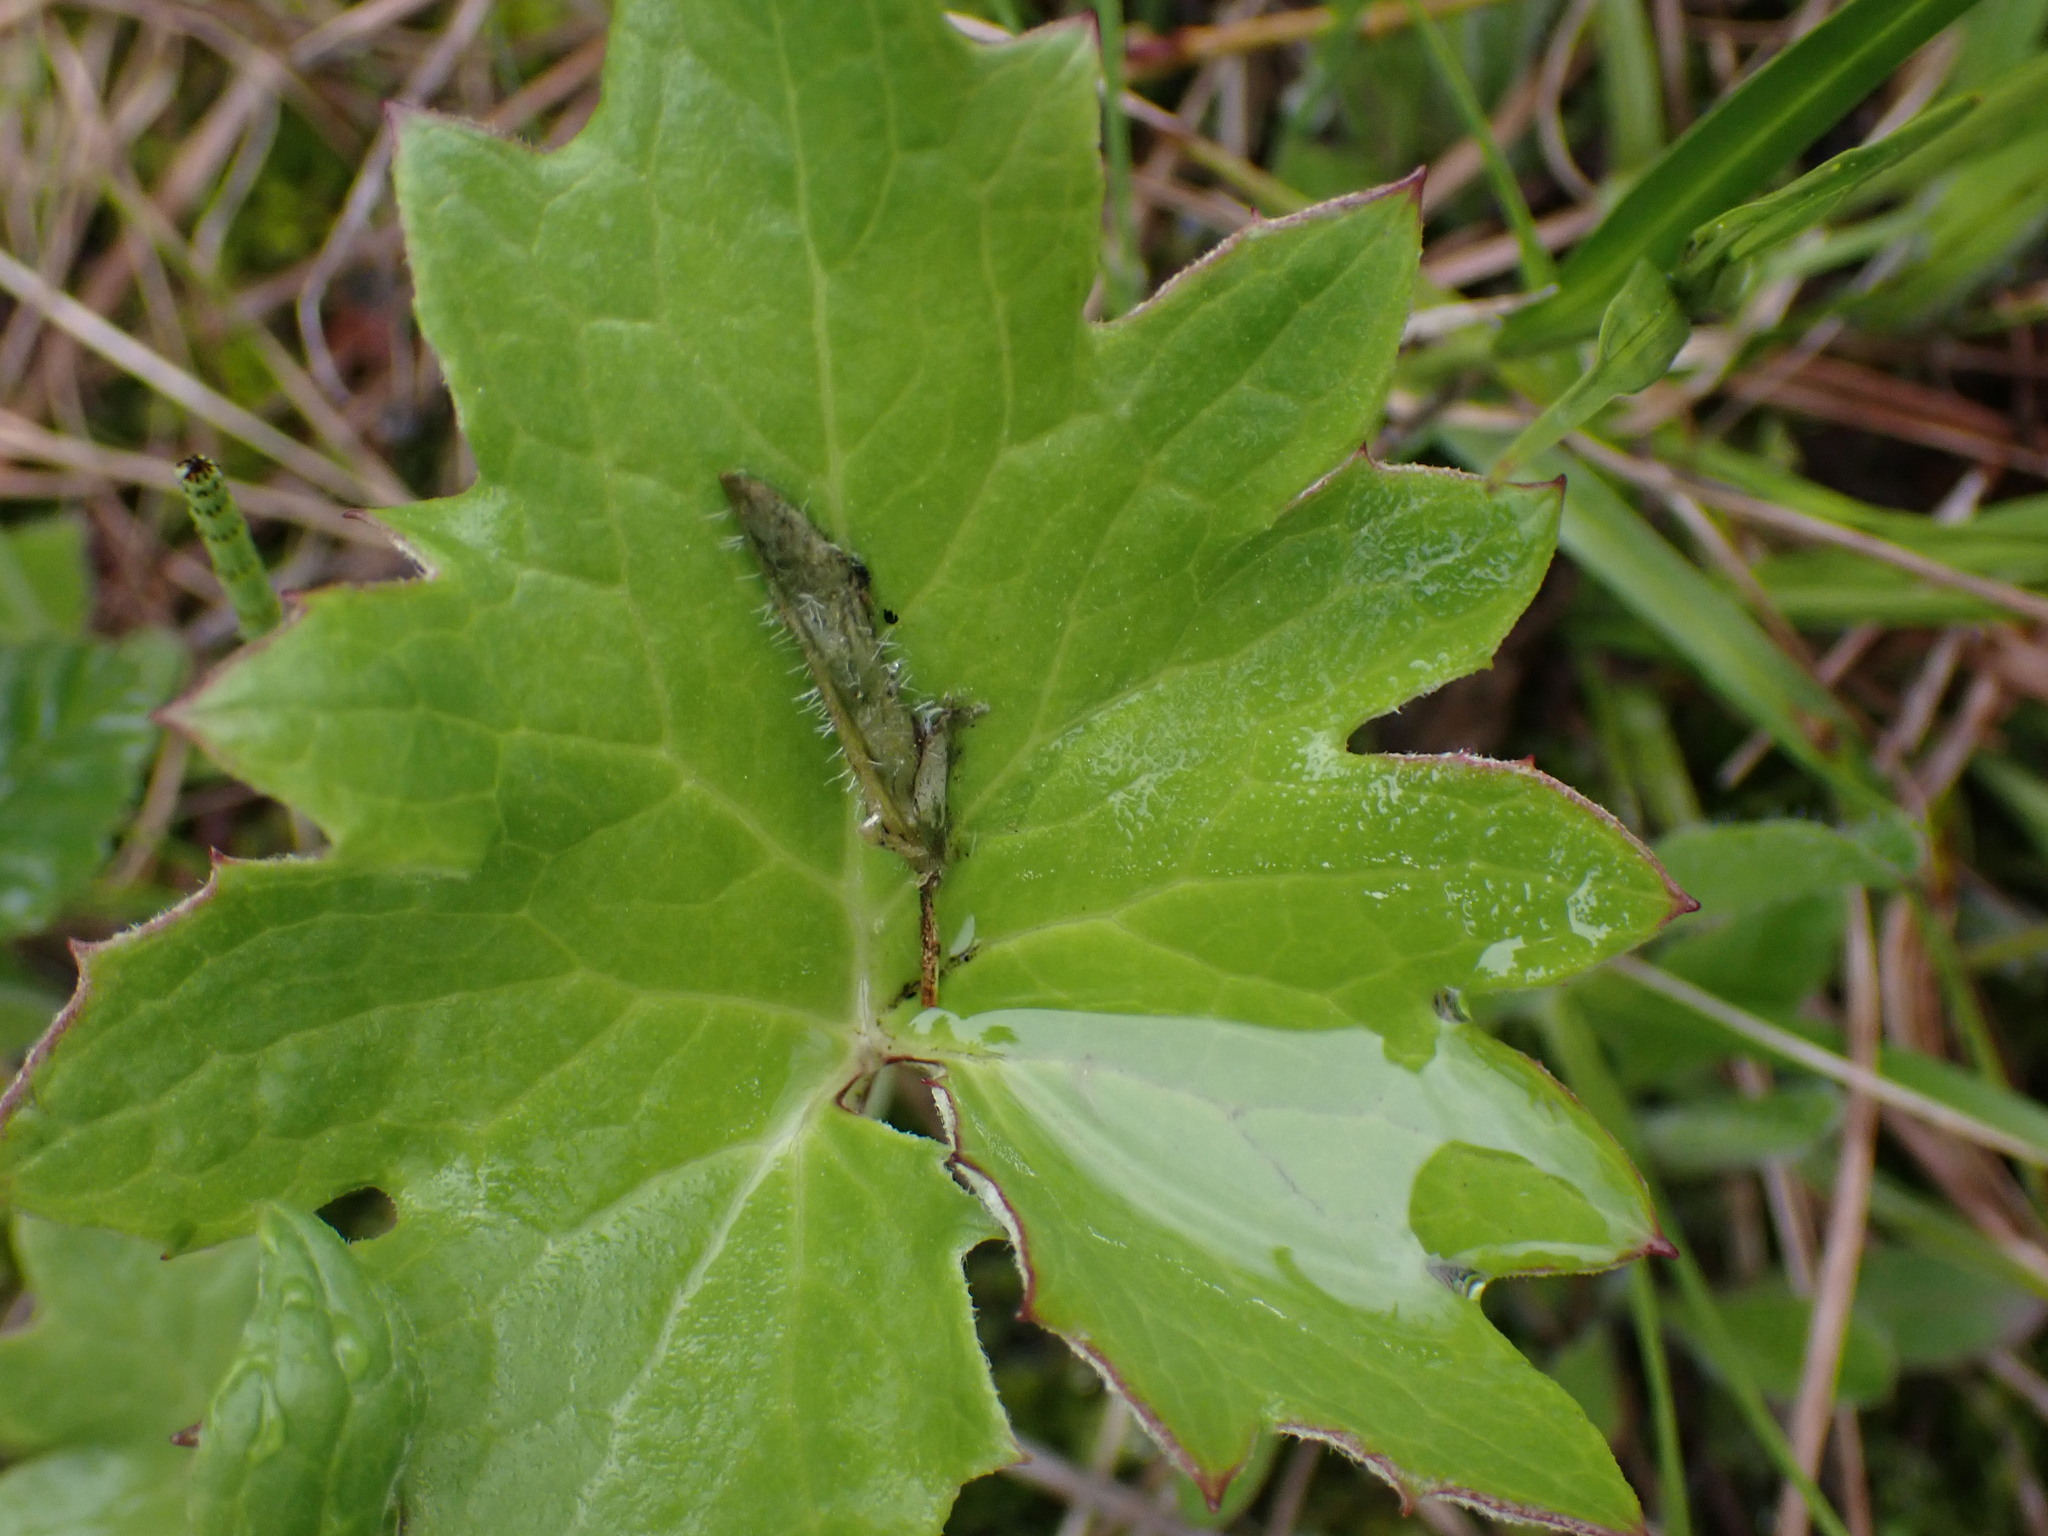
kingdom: Plantae
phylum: Tracheophyta
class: Magnoliopsida
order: Asterales
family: Asteraceae
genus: Petasites
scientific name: Petasites frigidus
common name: Arctic butterbur
